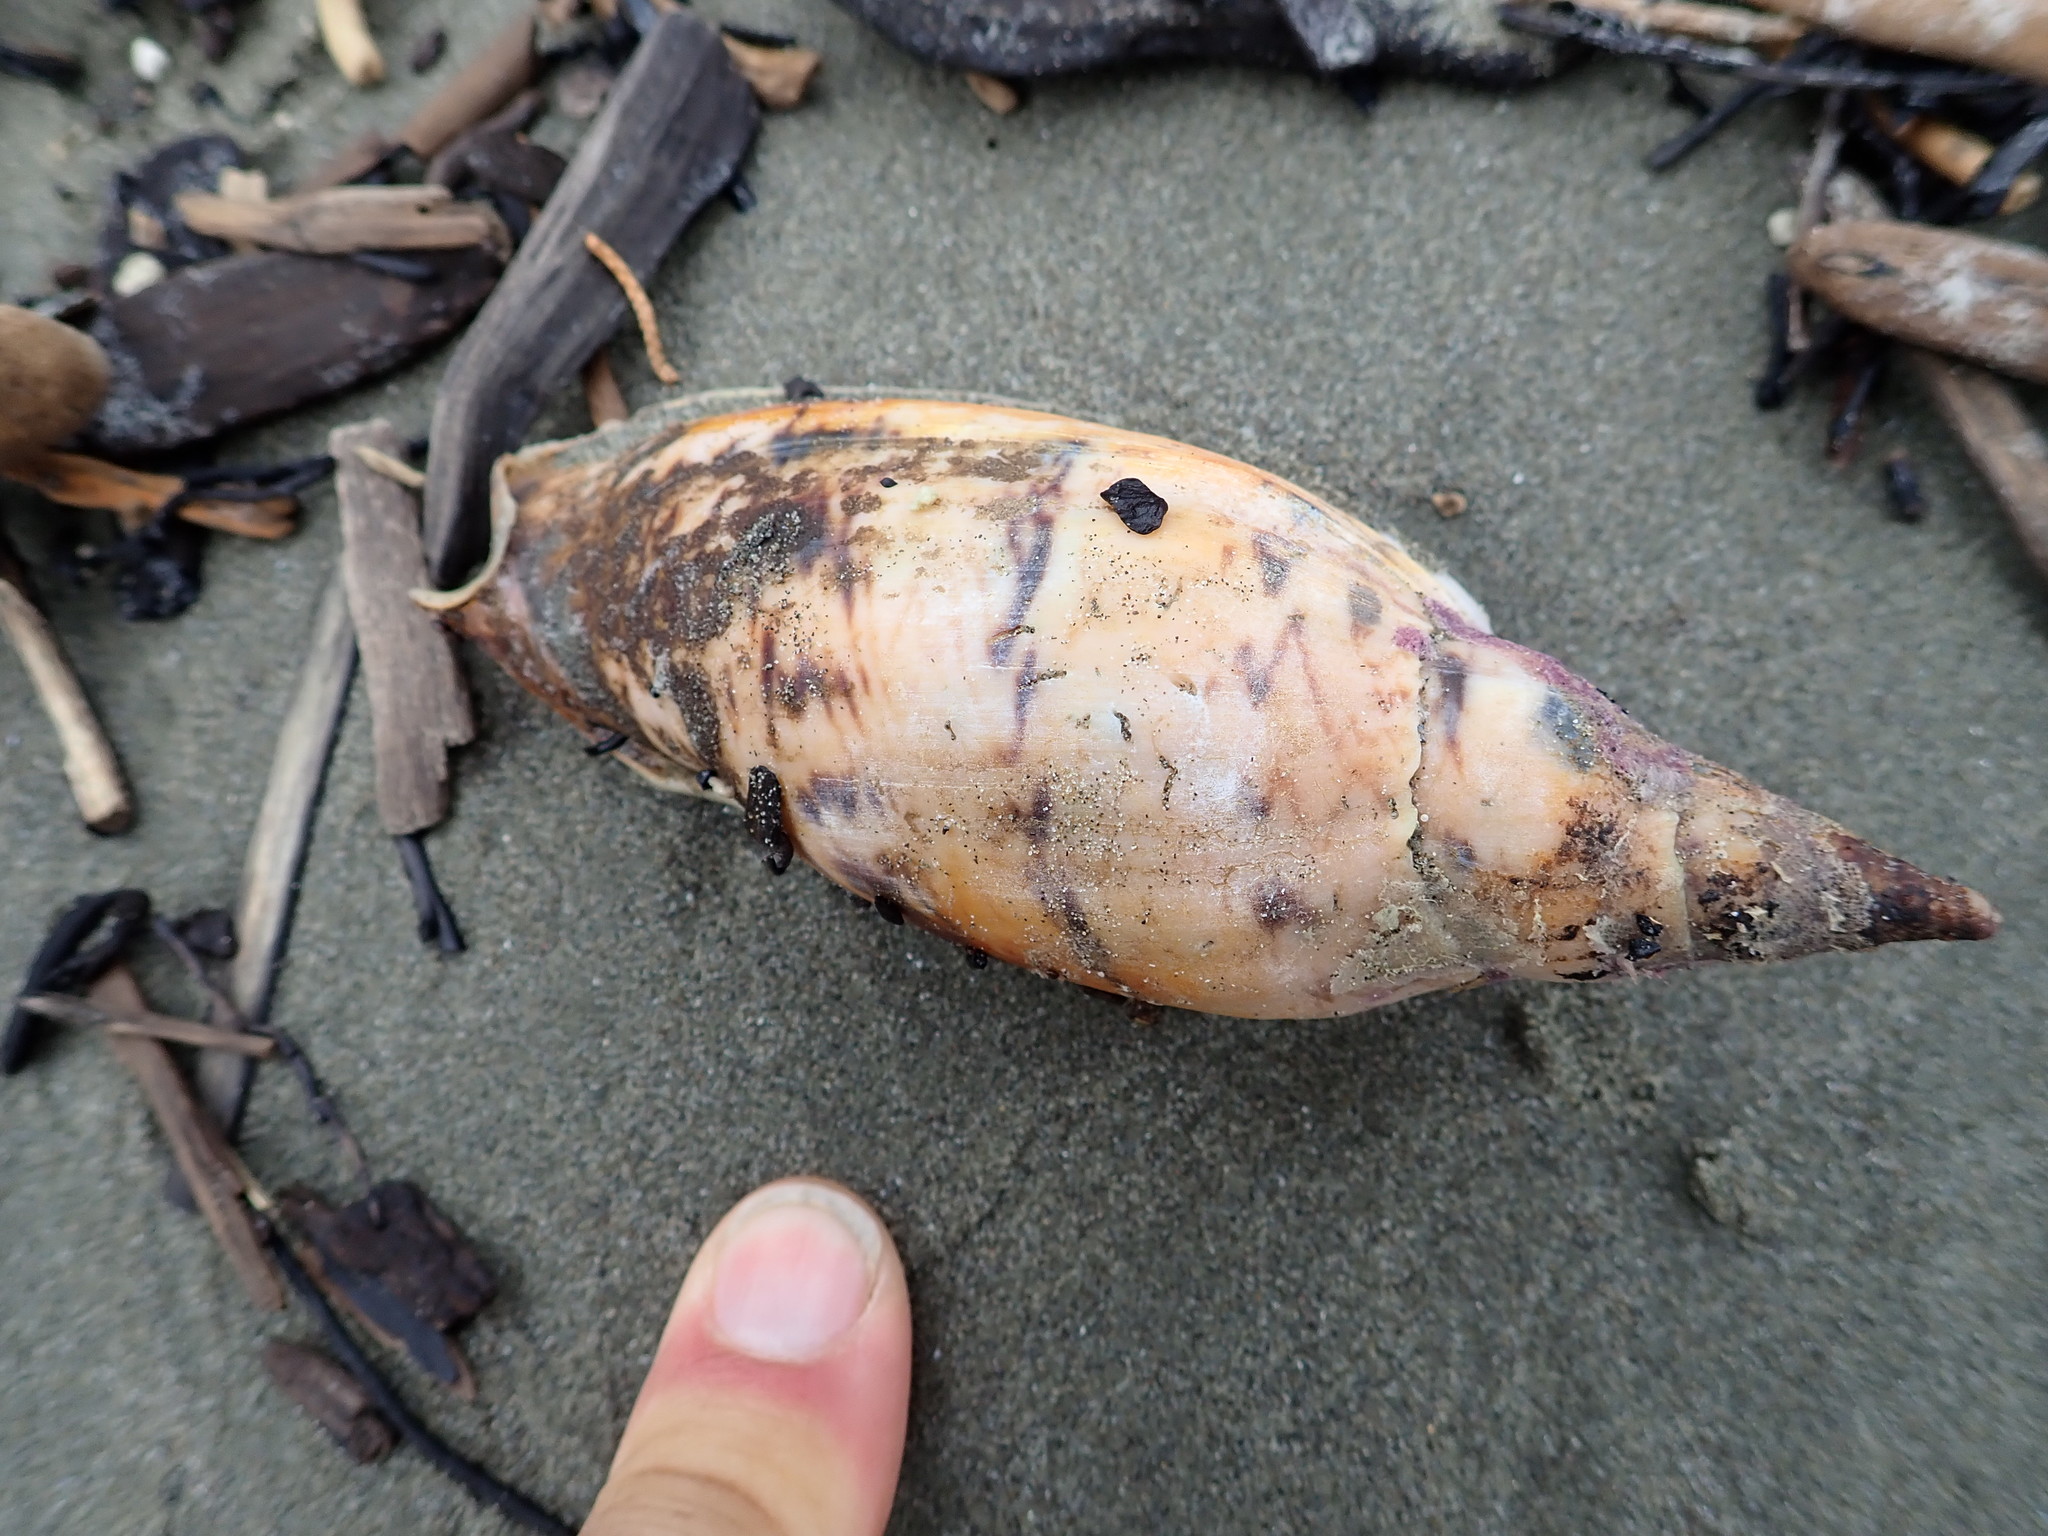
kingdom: Animalia
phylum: Mollusca
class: Gastropoda
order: Neogastropoda
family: Volutidae
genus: Alcithoe
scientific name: Alcithoe arabica
